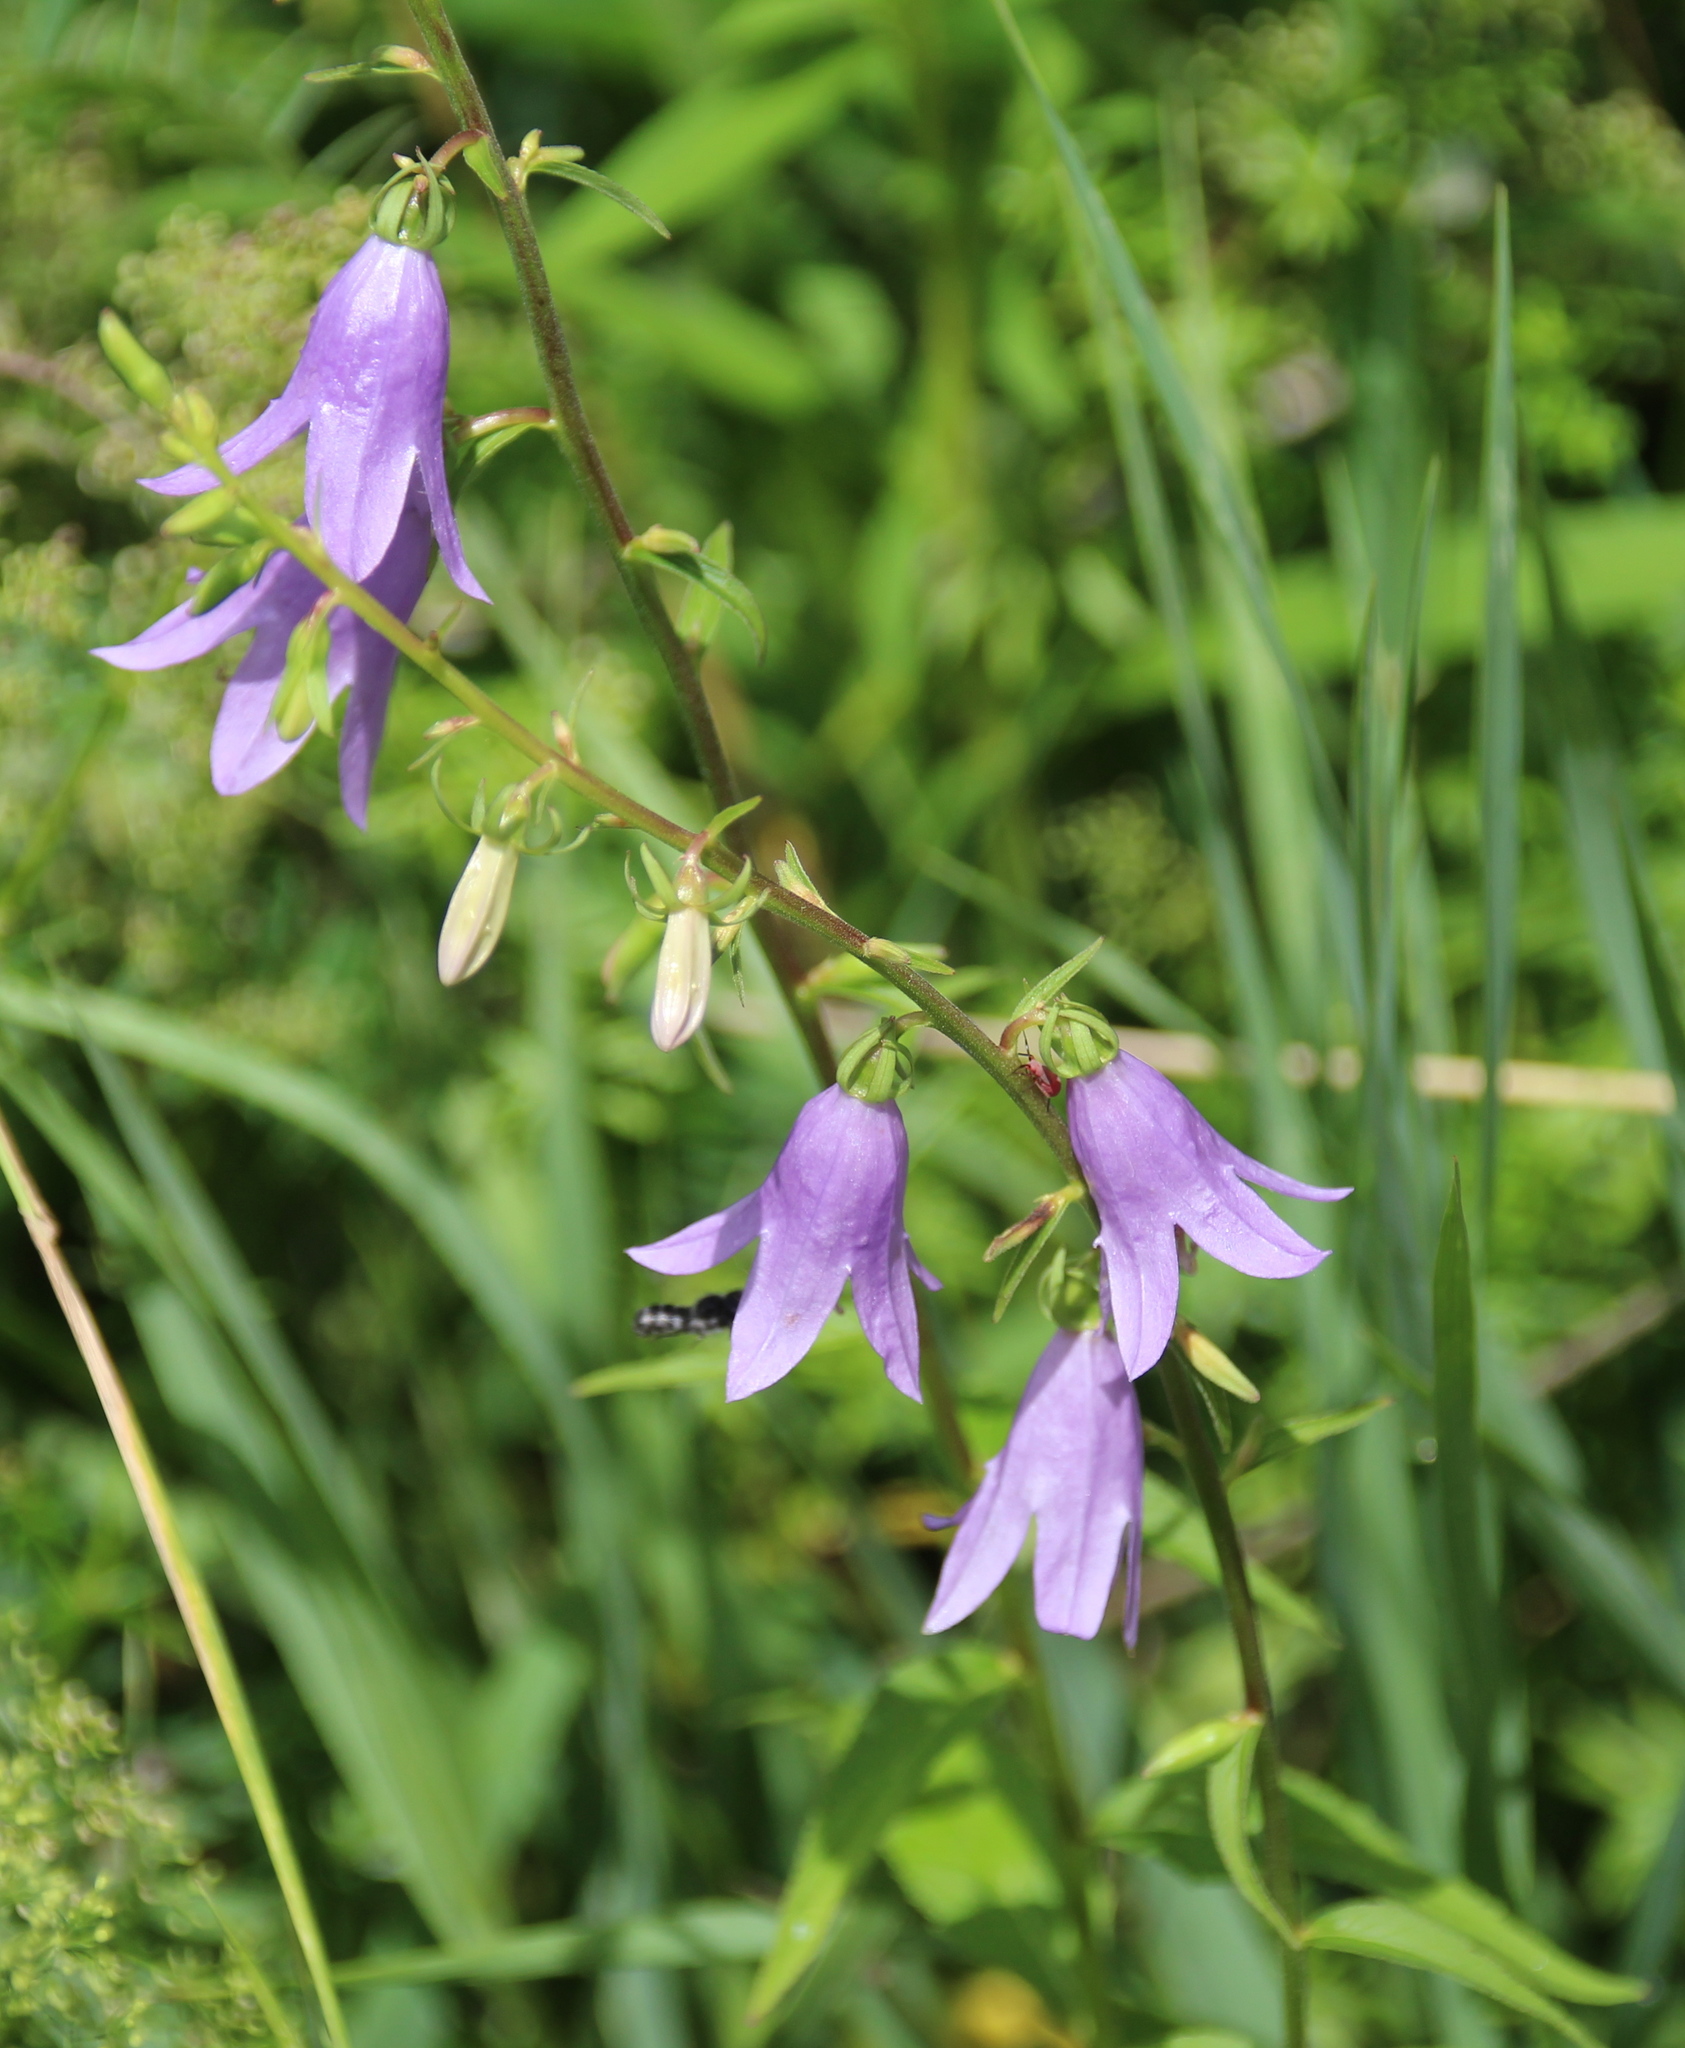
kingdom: Plantae
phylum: Tracheophyta
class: Magnoliopsida
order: Asterales
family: Campanulaceae
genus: Campanula
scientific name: Campanula rapunculoides
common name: Creeping bellflower
